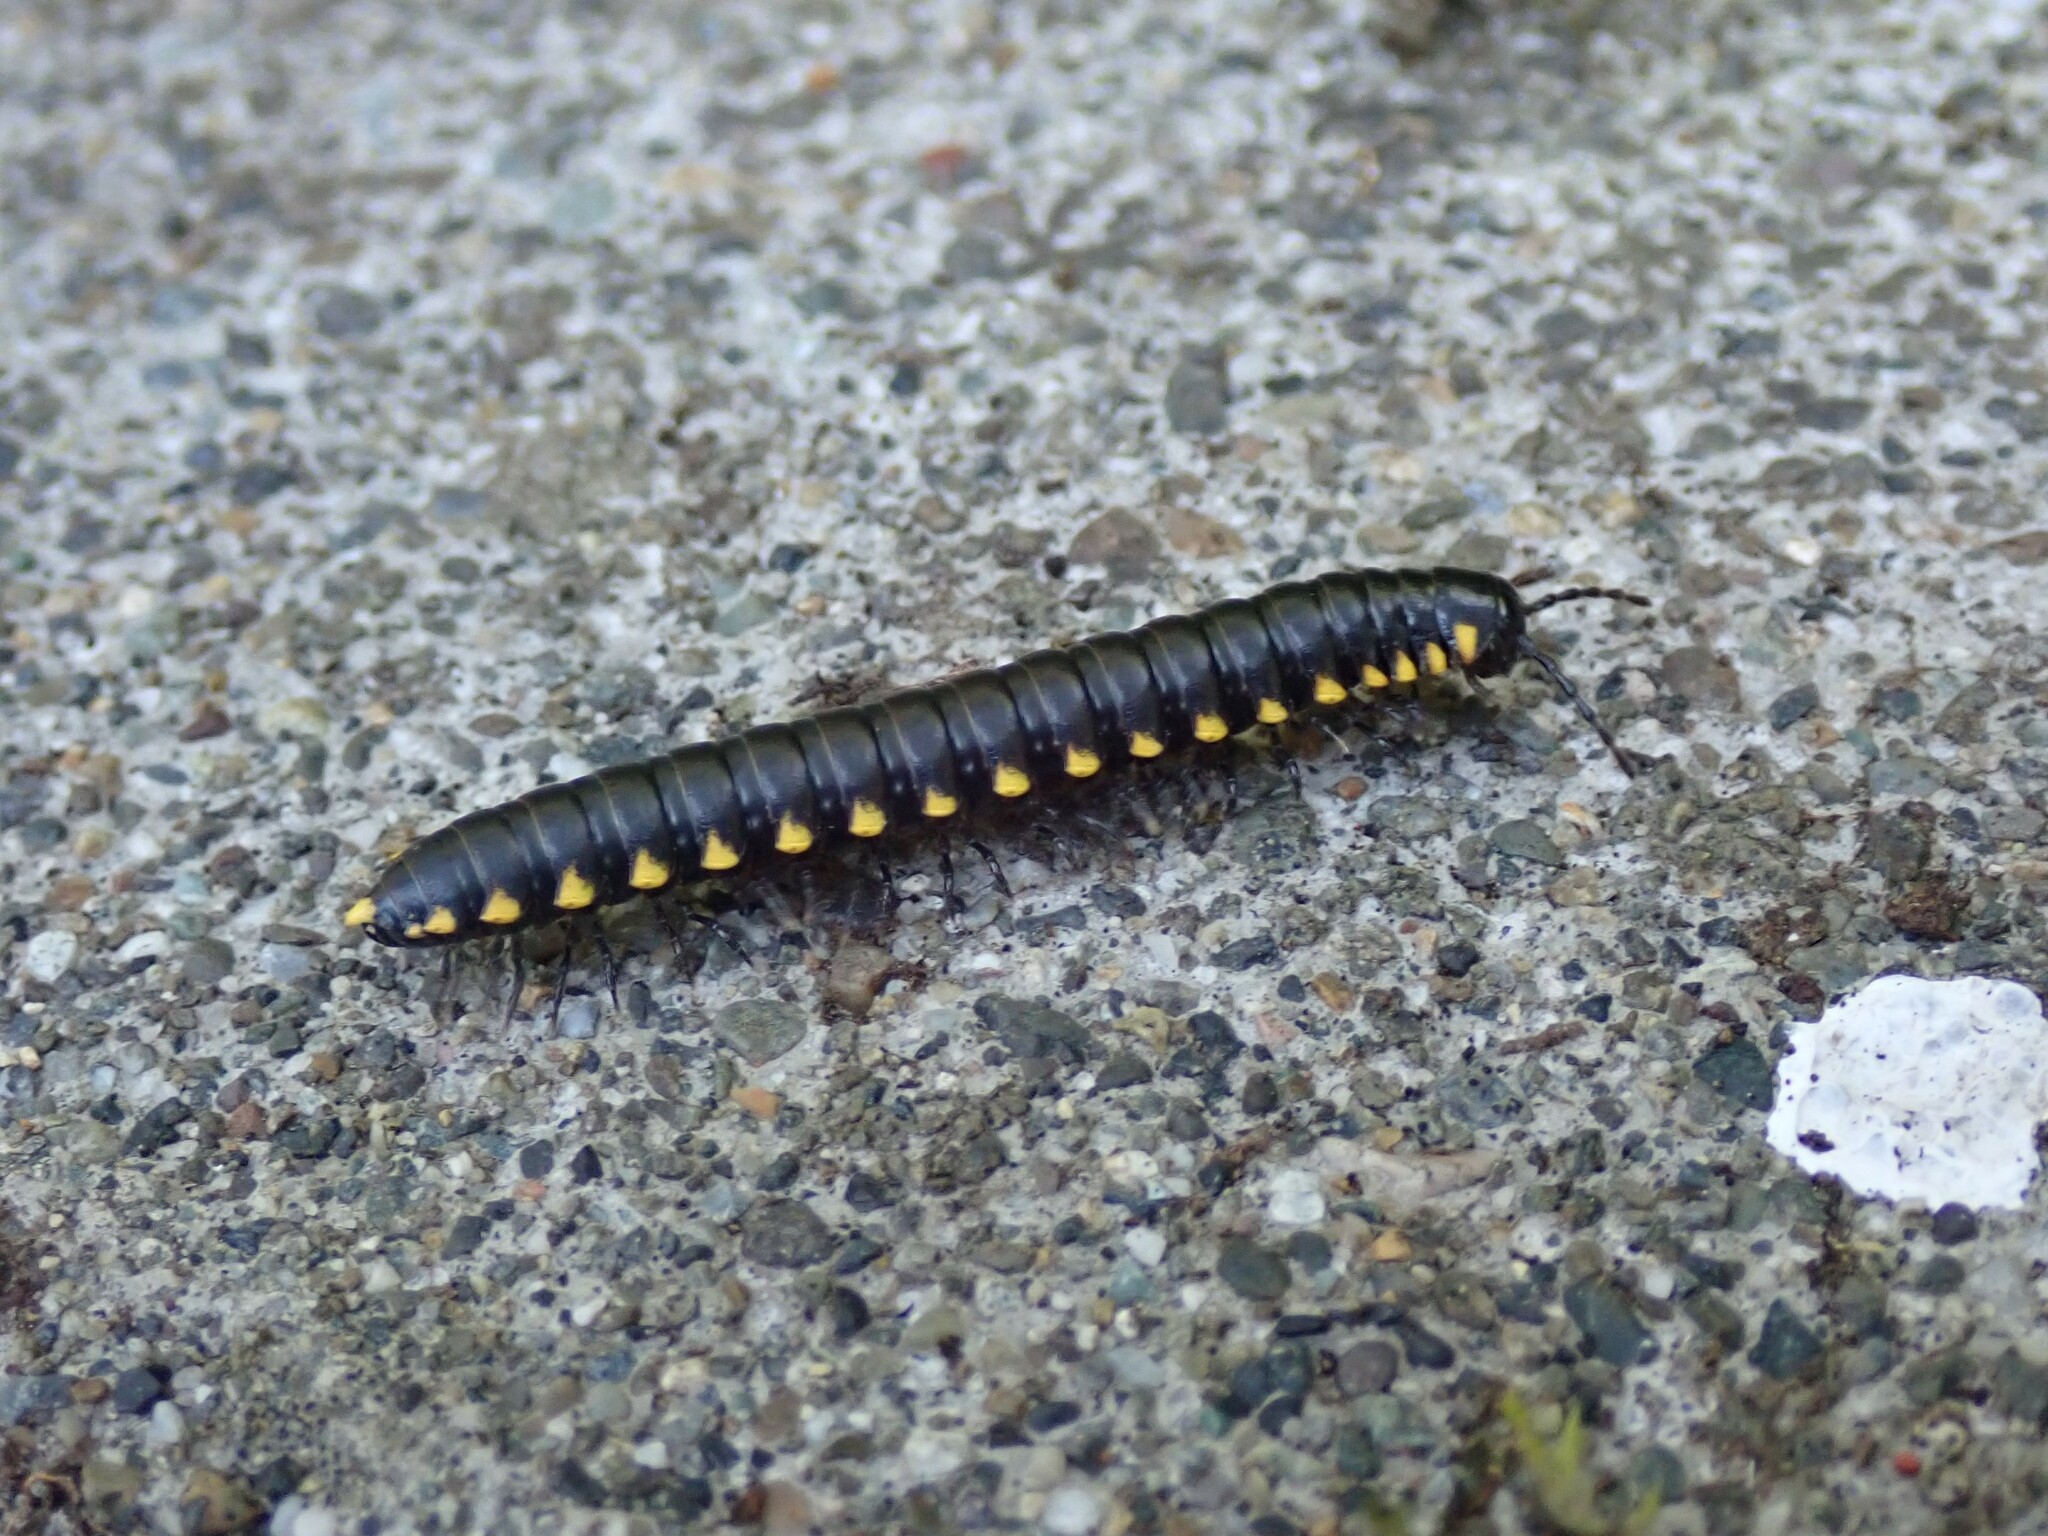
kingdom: Animalia
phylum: Arthropoda
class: Diplopoda
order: Polydesmida
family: Xystodesmidae
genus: Harpaphe
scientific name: Harpaphe haydeniana
